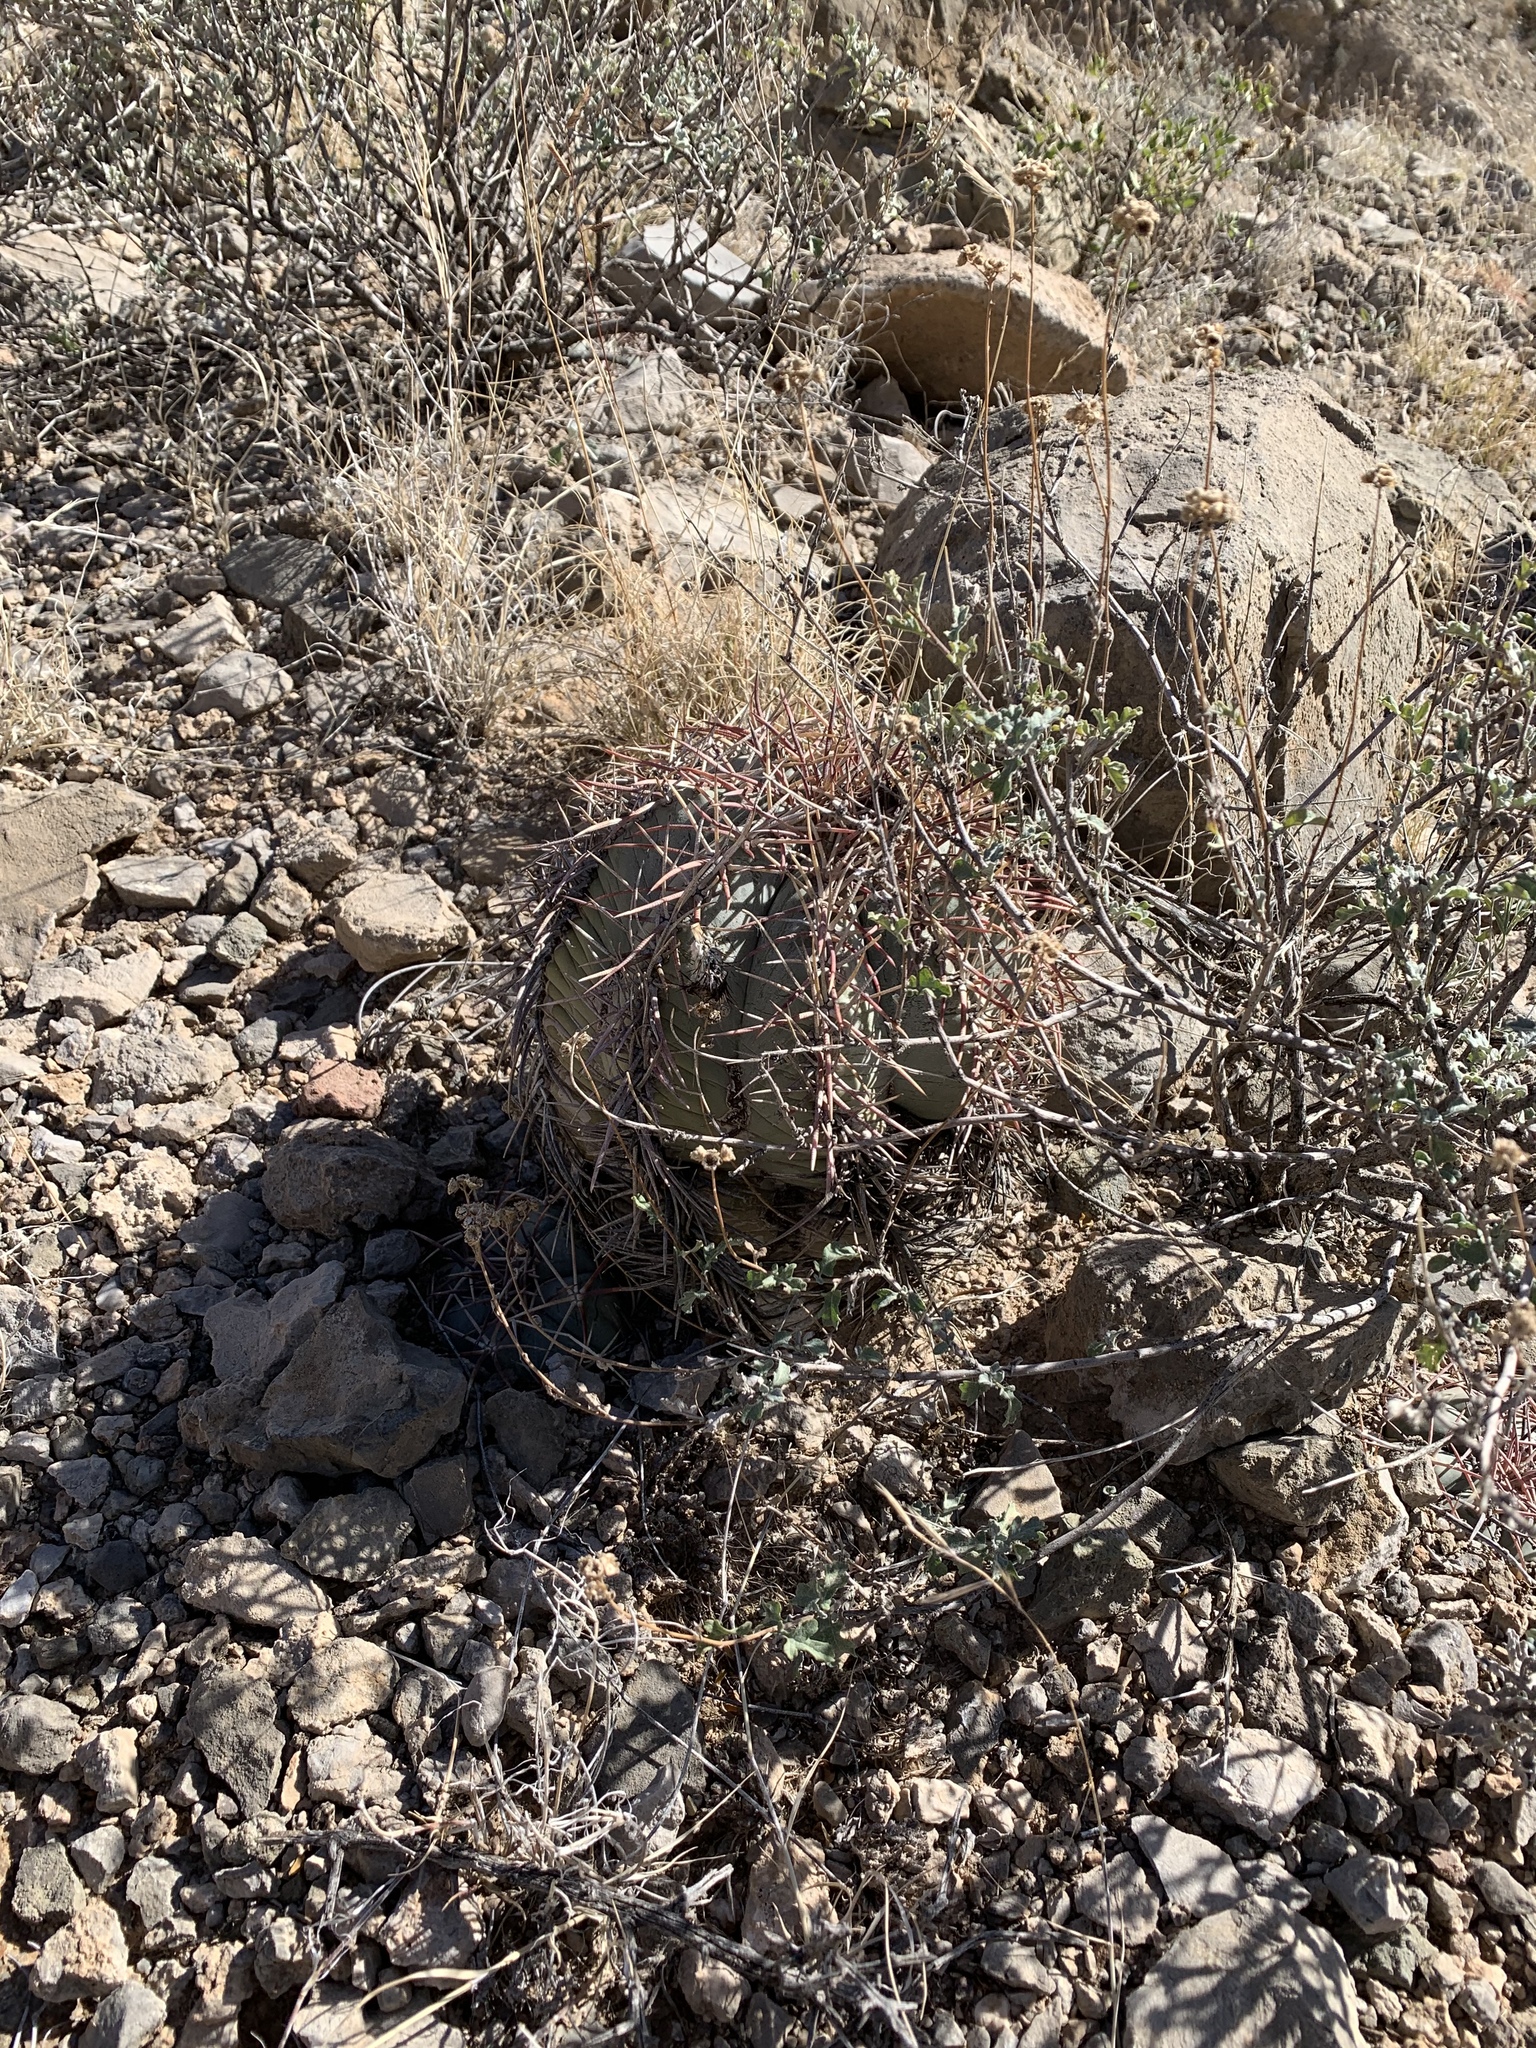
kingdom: Plantae
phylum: Tracheophyta
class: Magnoliopsida
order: Caryophyllales
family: Cactaceae
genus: Echinocactus
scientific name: Echinocactus horizonthalonius
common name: Devilshead
